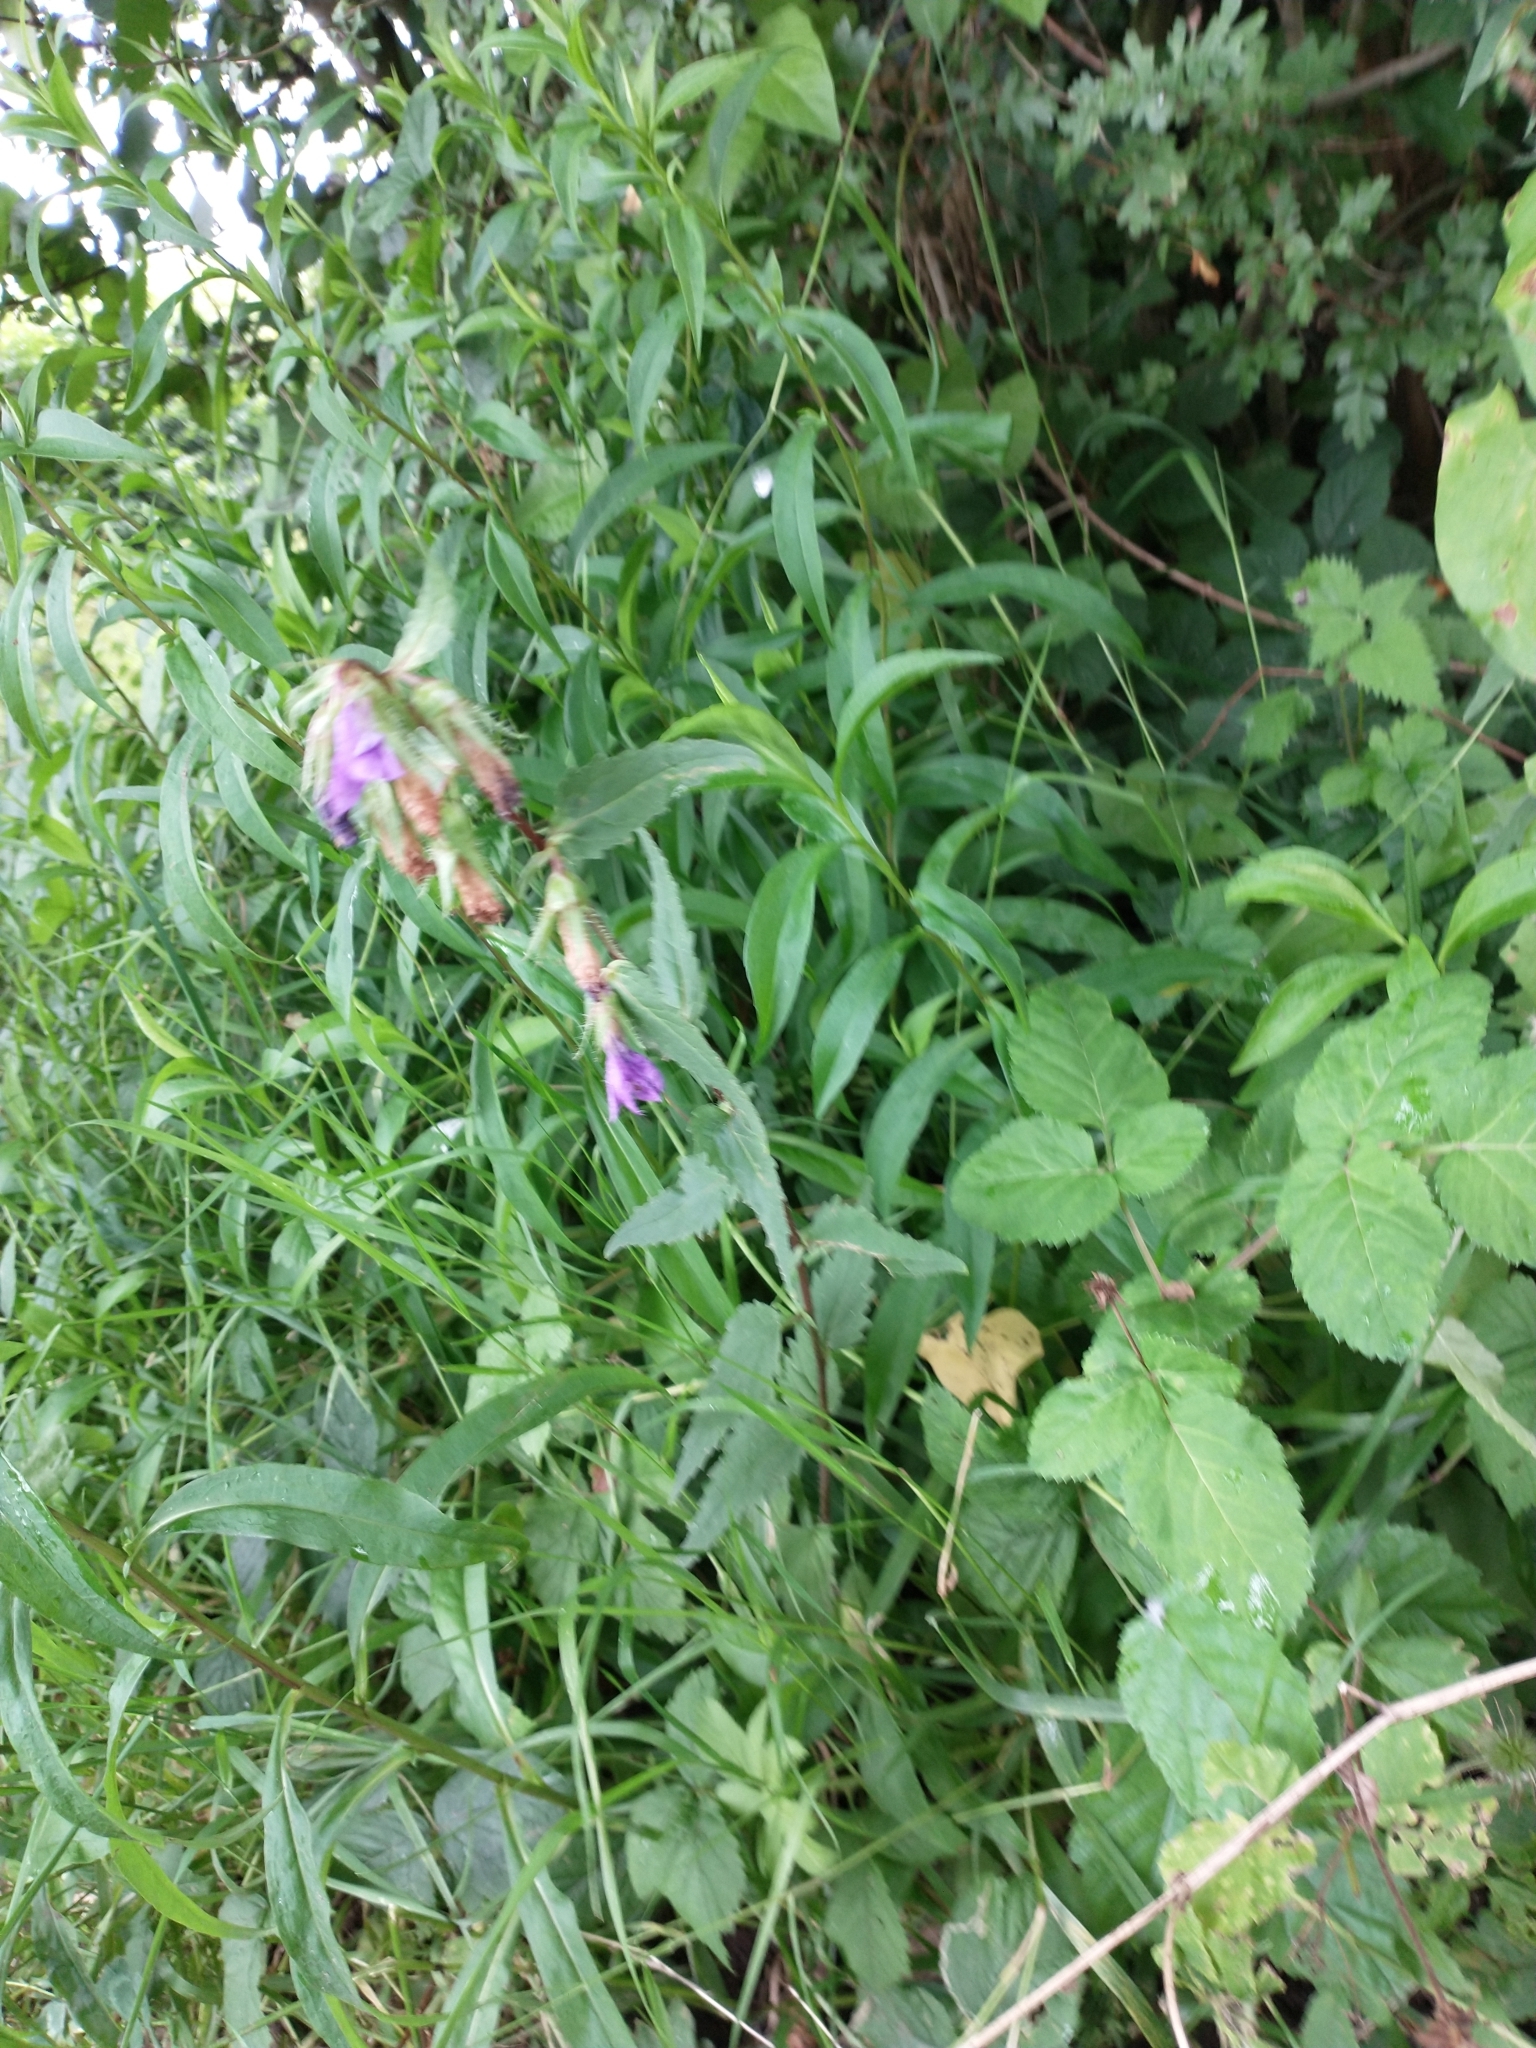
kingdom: Plantae
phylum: Tracheophyta
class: Magnoliopsida
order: Asterales
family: Campanulaceae
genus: Campanula
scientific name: Campanula trachelium
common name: Nettle-leaved bellflower
